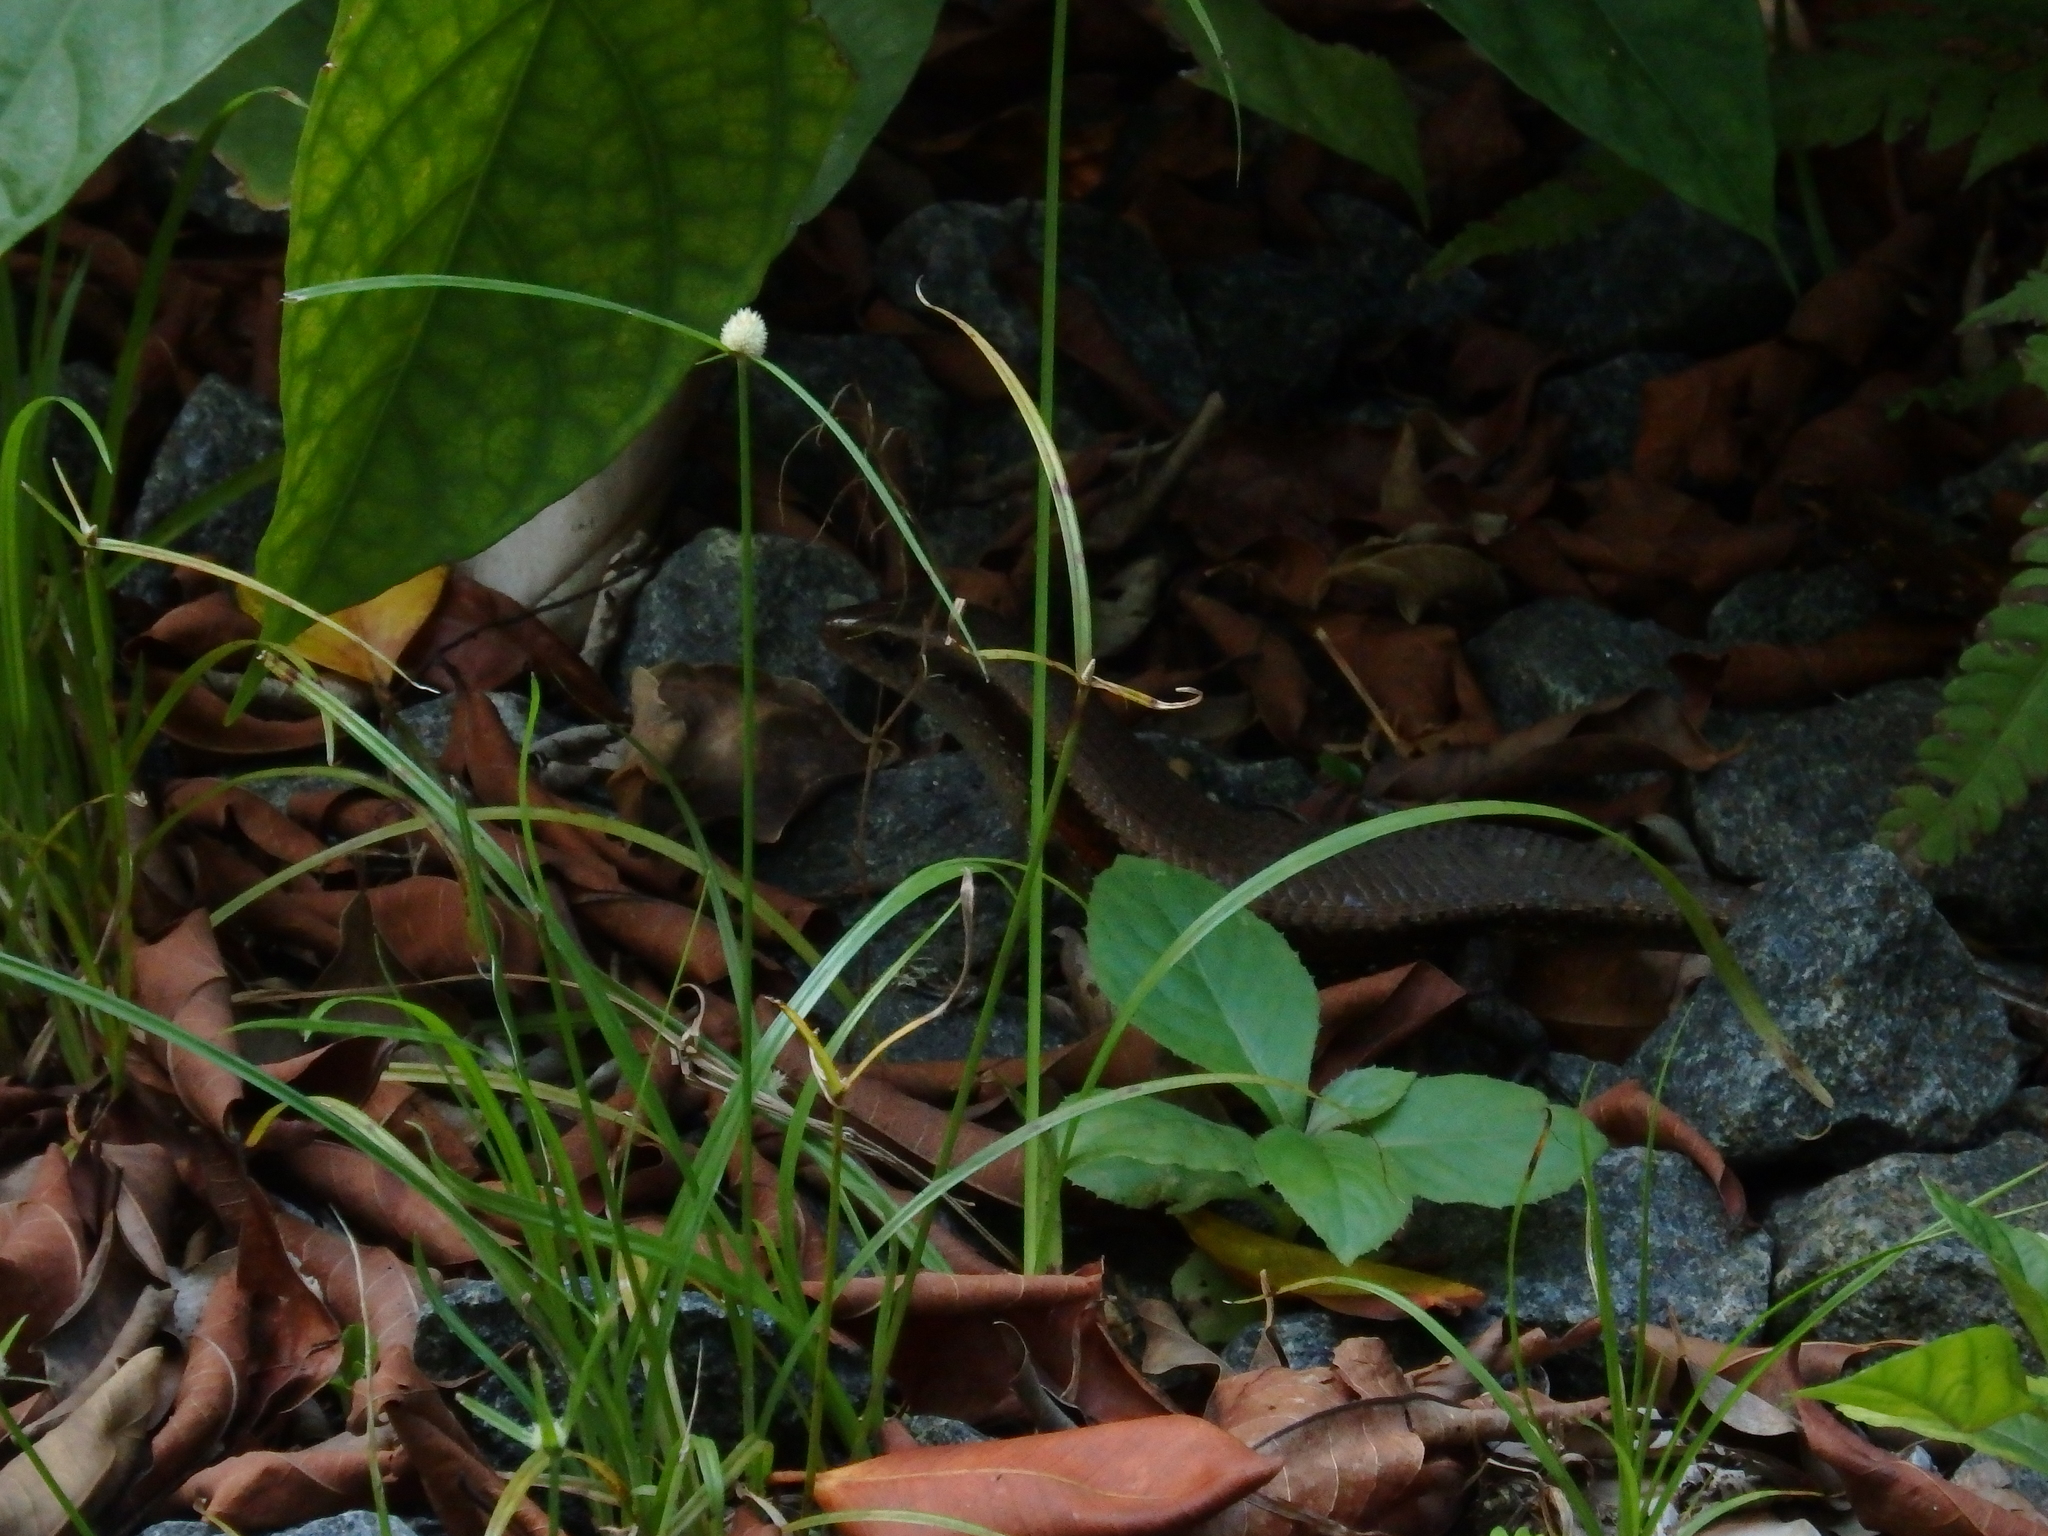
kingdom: Animalia
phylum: Chordata
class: Squamata
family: Scincidae
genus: Eutropis
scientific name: Eutropis multifasciata
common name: Common mabuya
